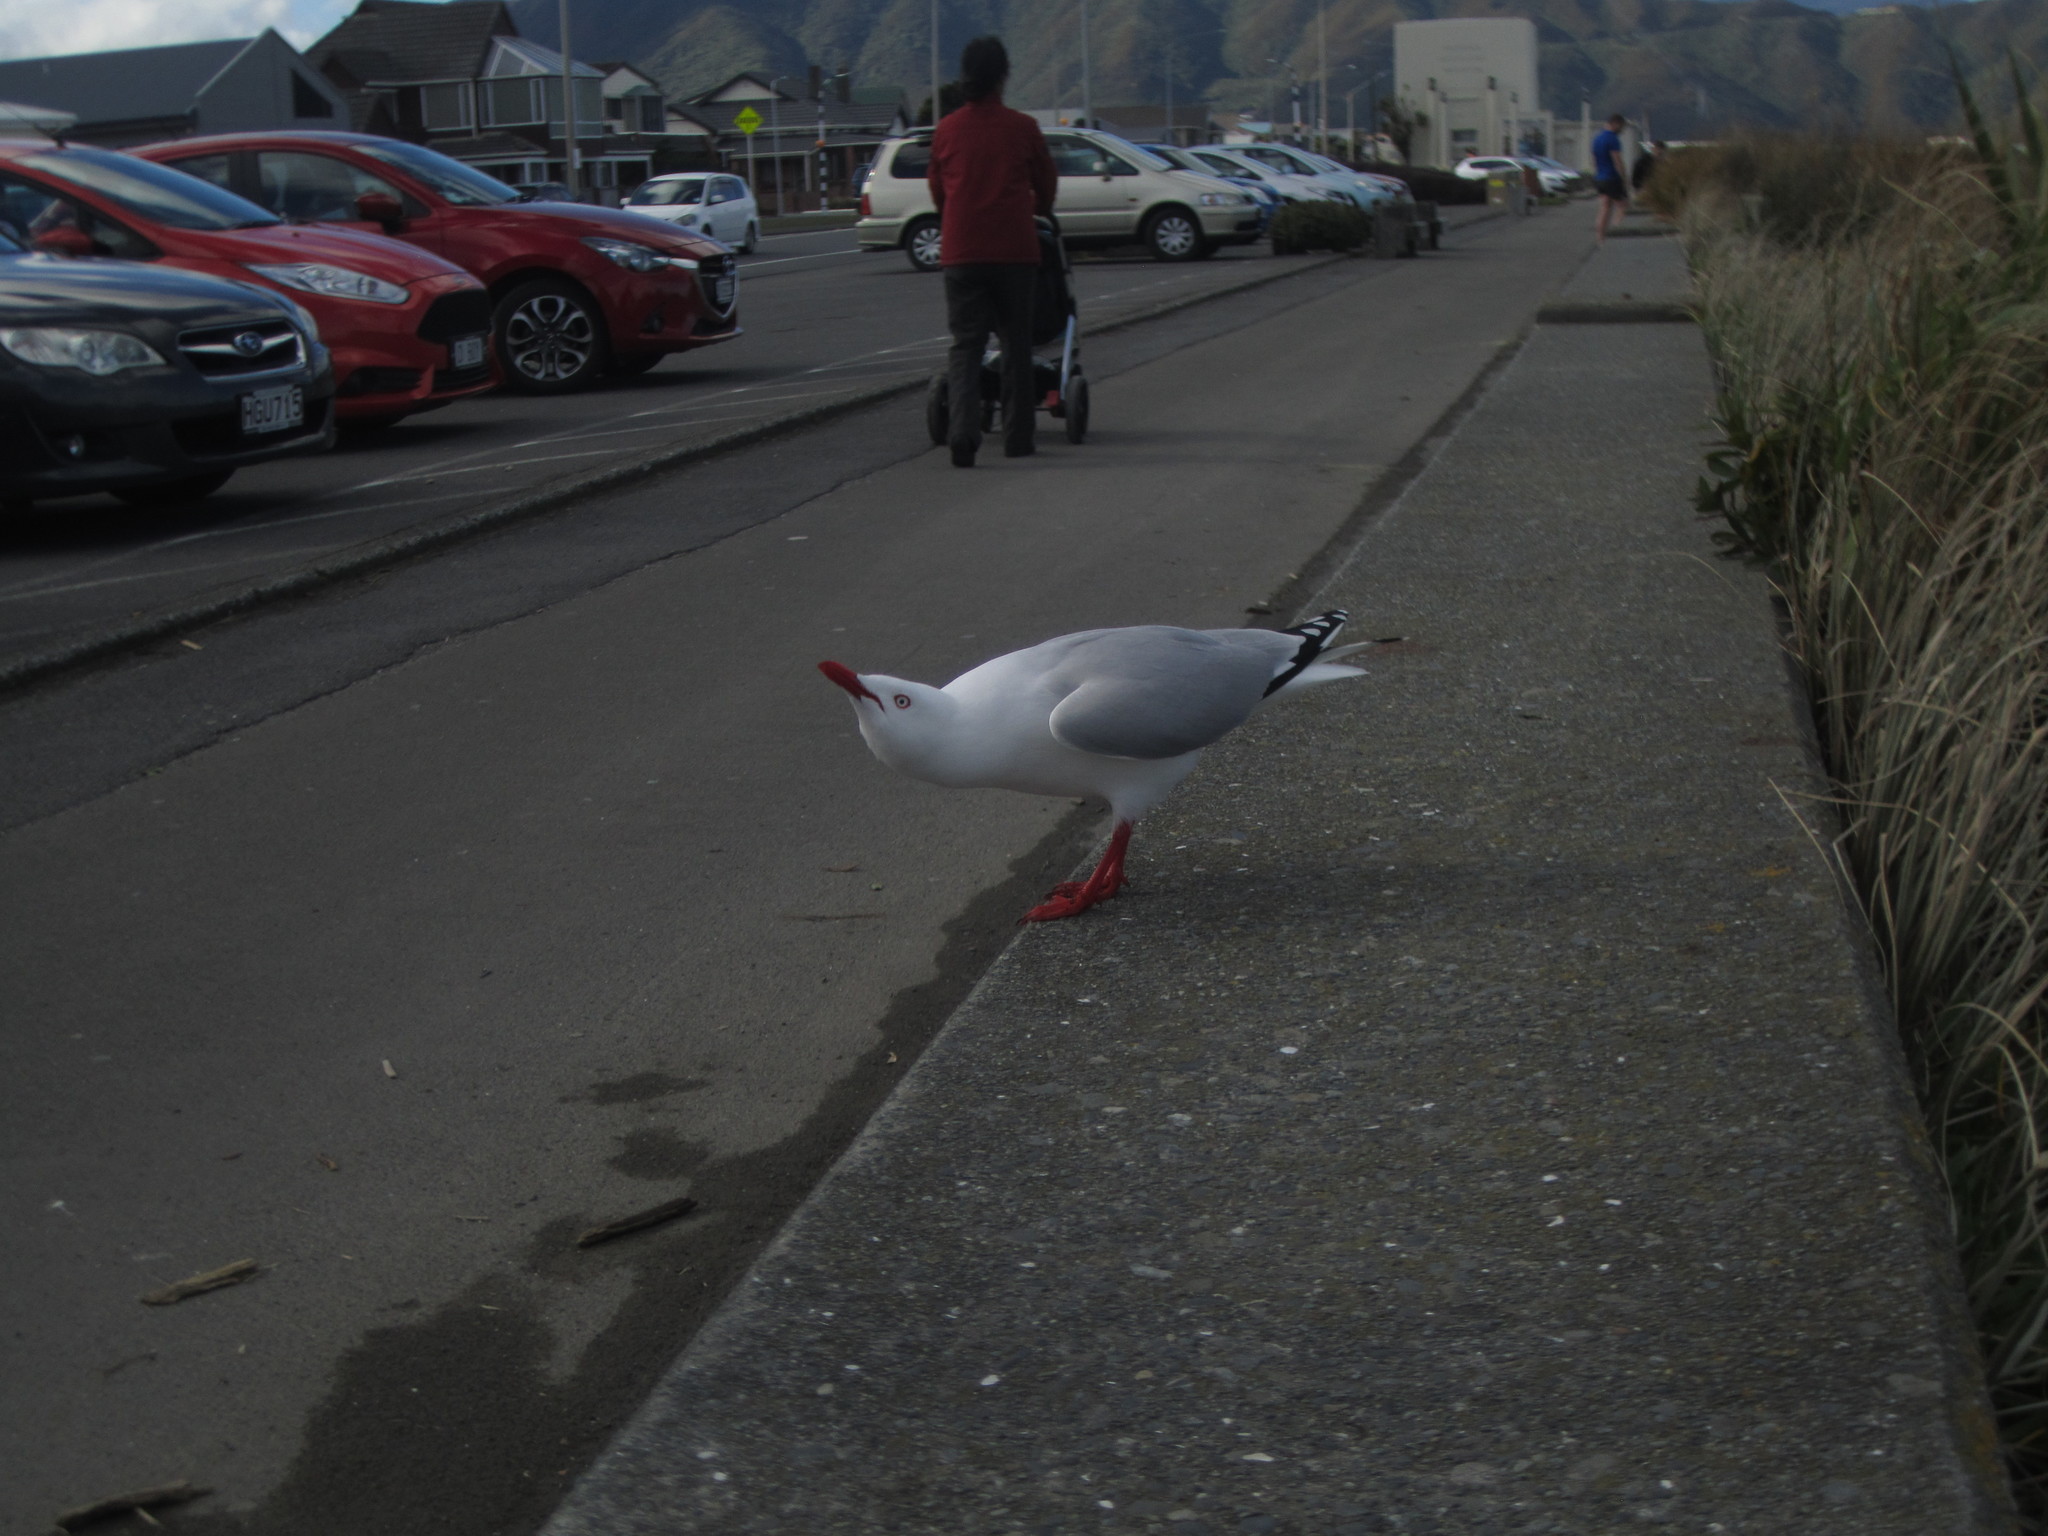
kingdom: Animalia
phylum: Chordata
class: Aves
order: Charadriiformes
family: Laridae
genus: Chroicocephalus
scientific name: Chroicocephalus novaehollandiae
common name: Silver gull
